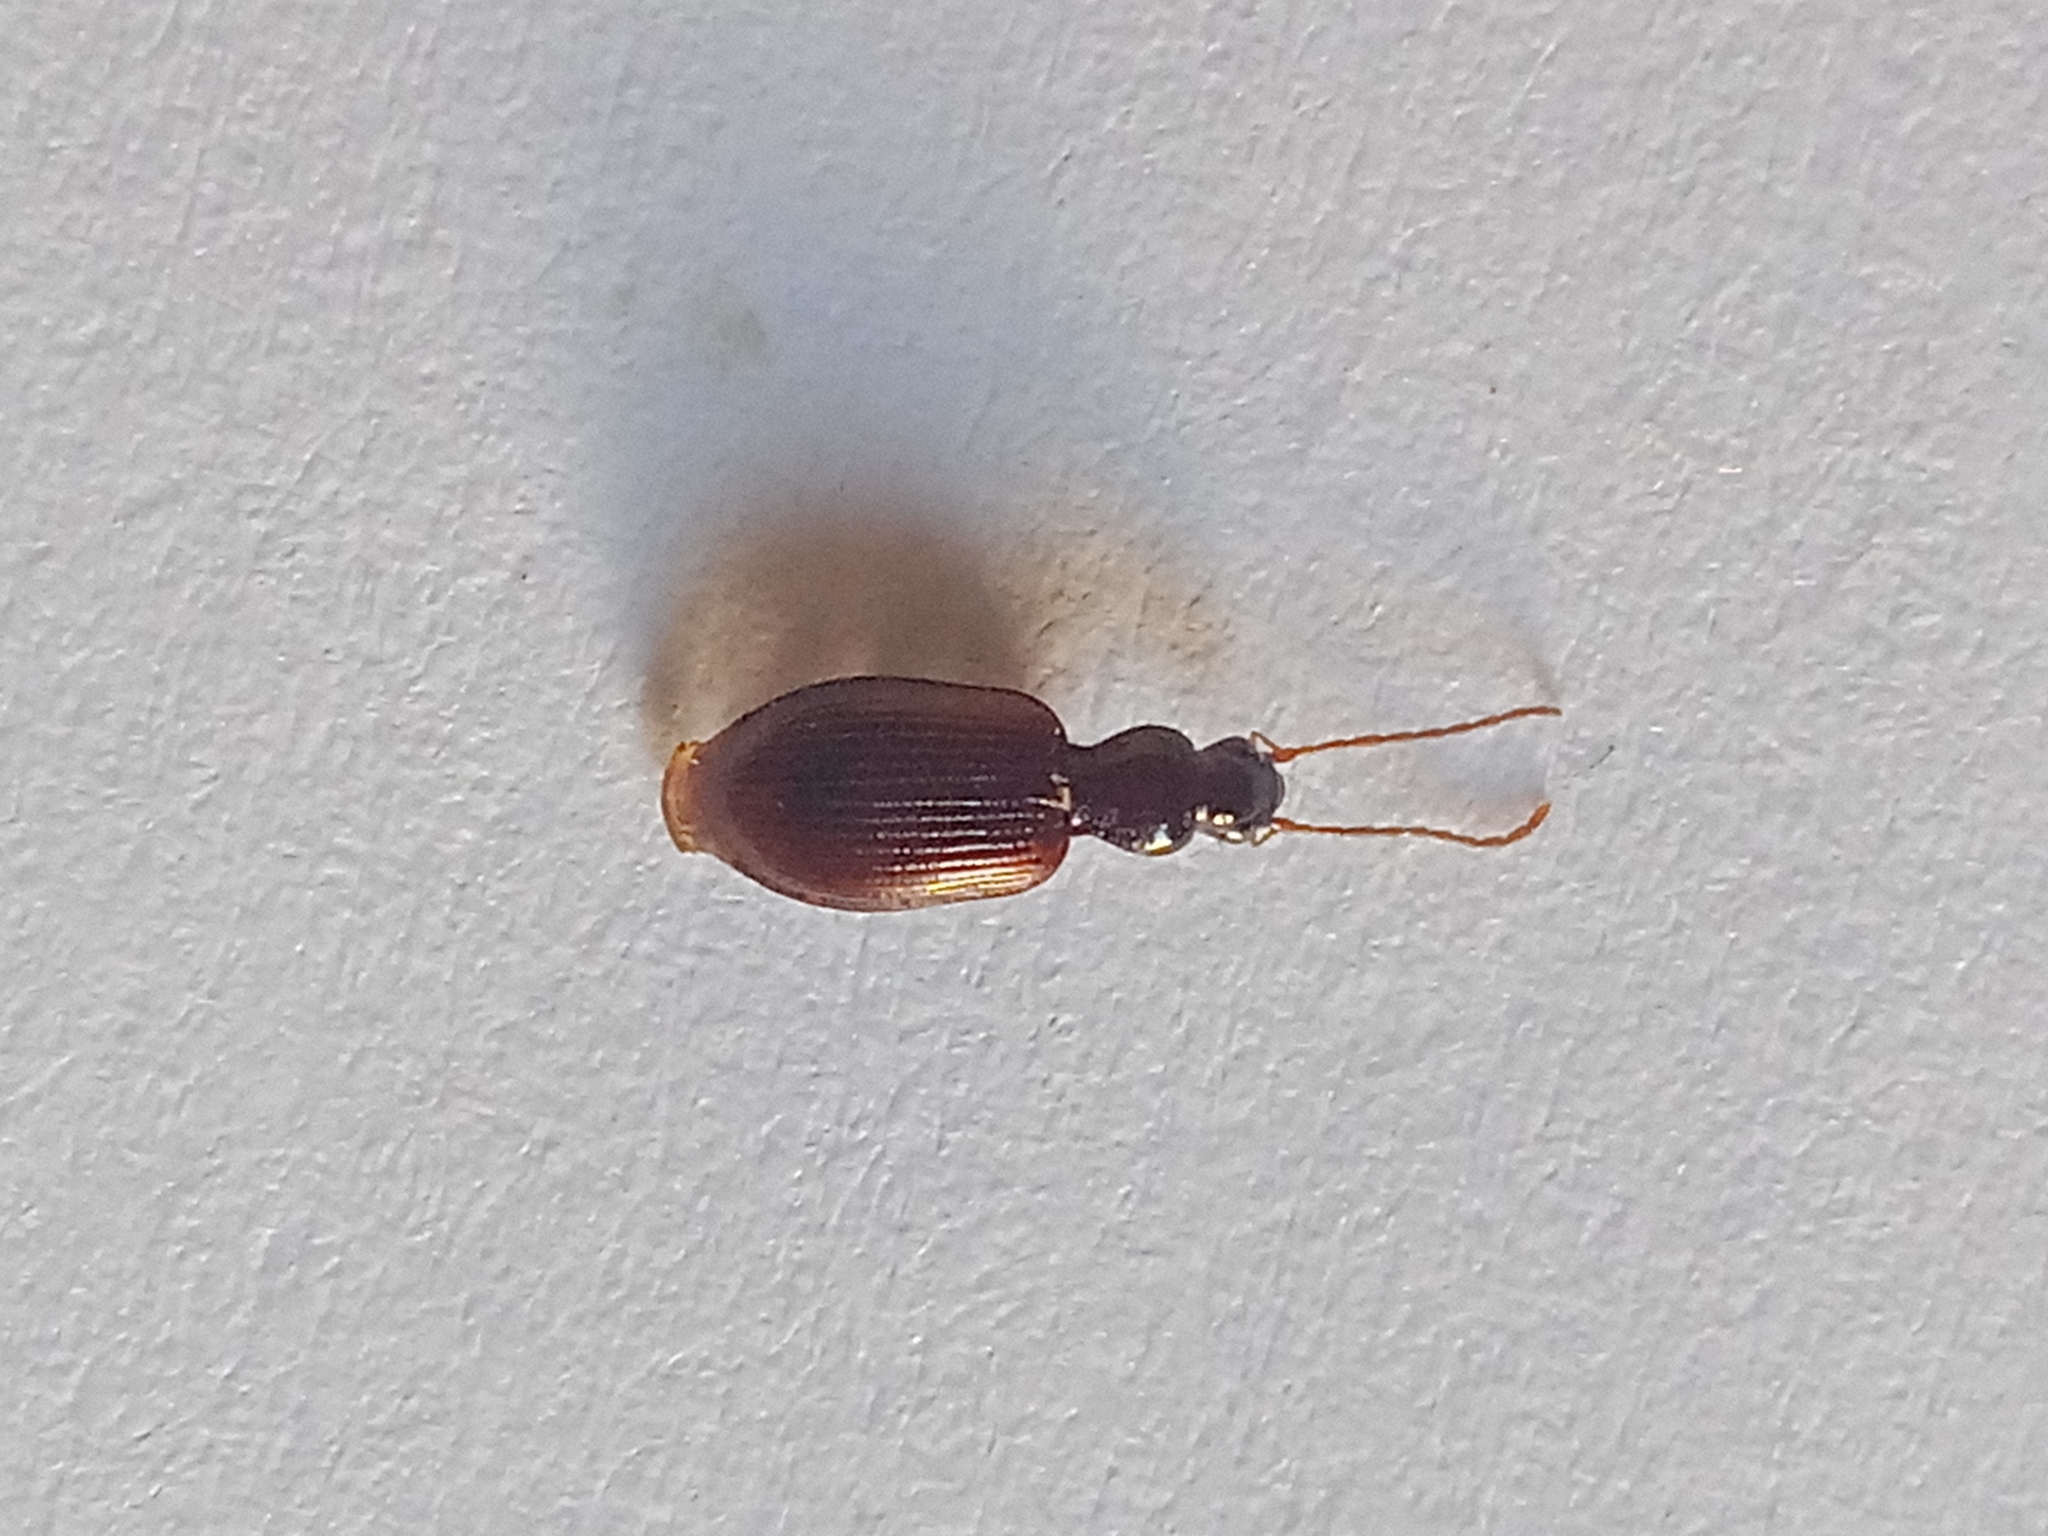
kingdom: Animalia
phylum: Arthropoda
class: Insecta
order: Coleoptera
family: Carabidae
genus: Oxypselaphus
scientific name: Oxypselaphus obscurus
